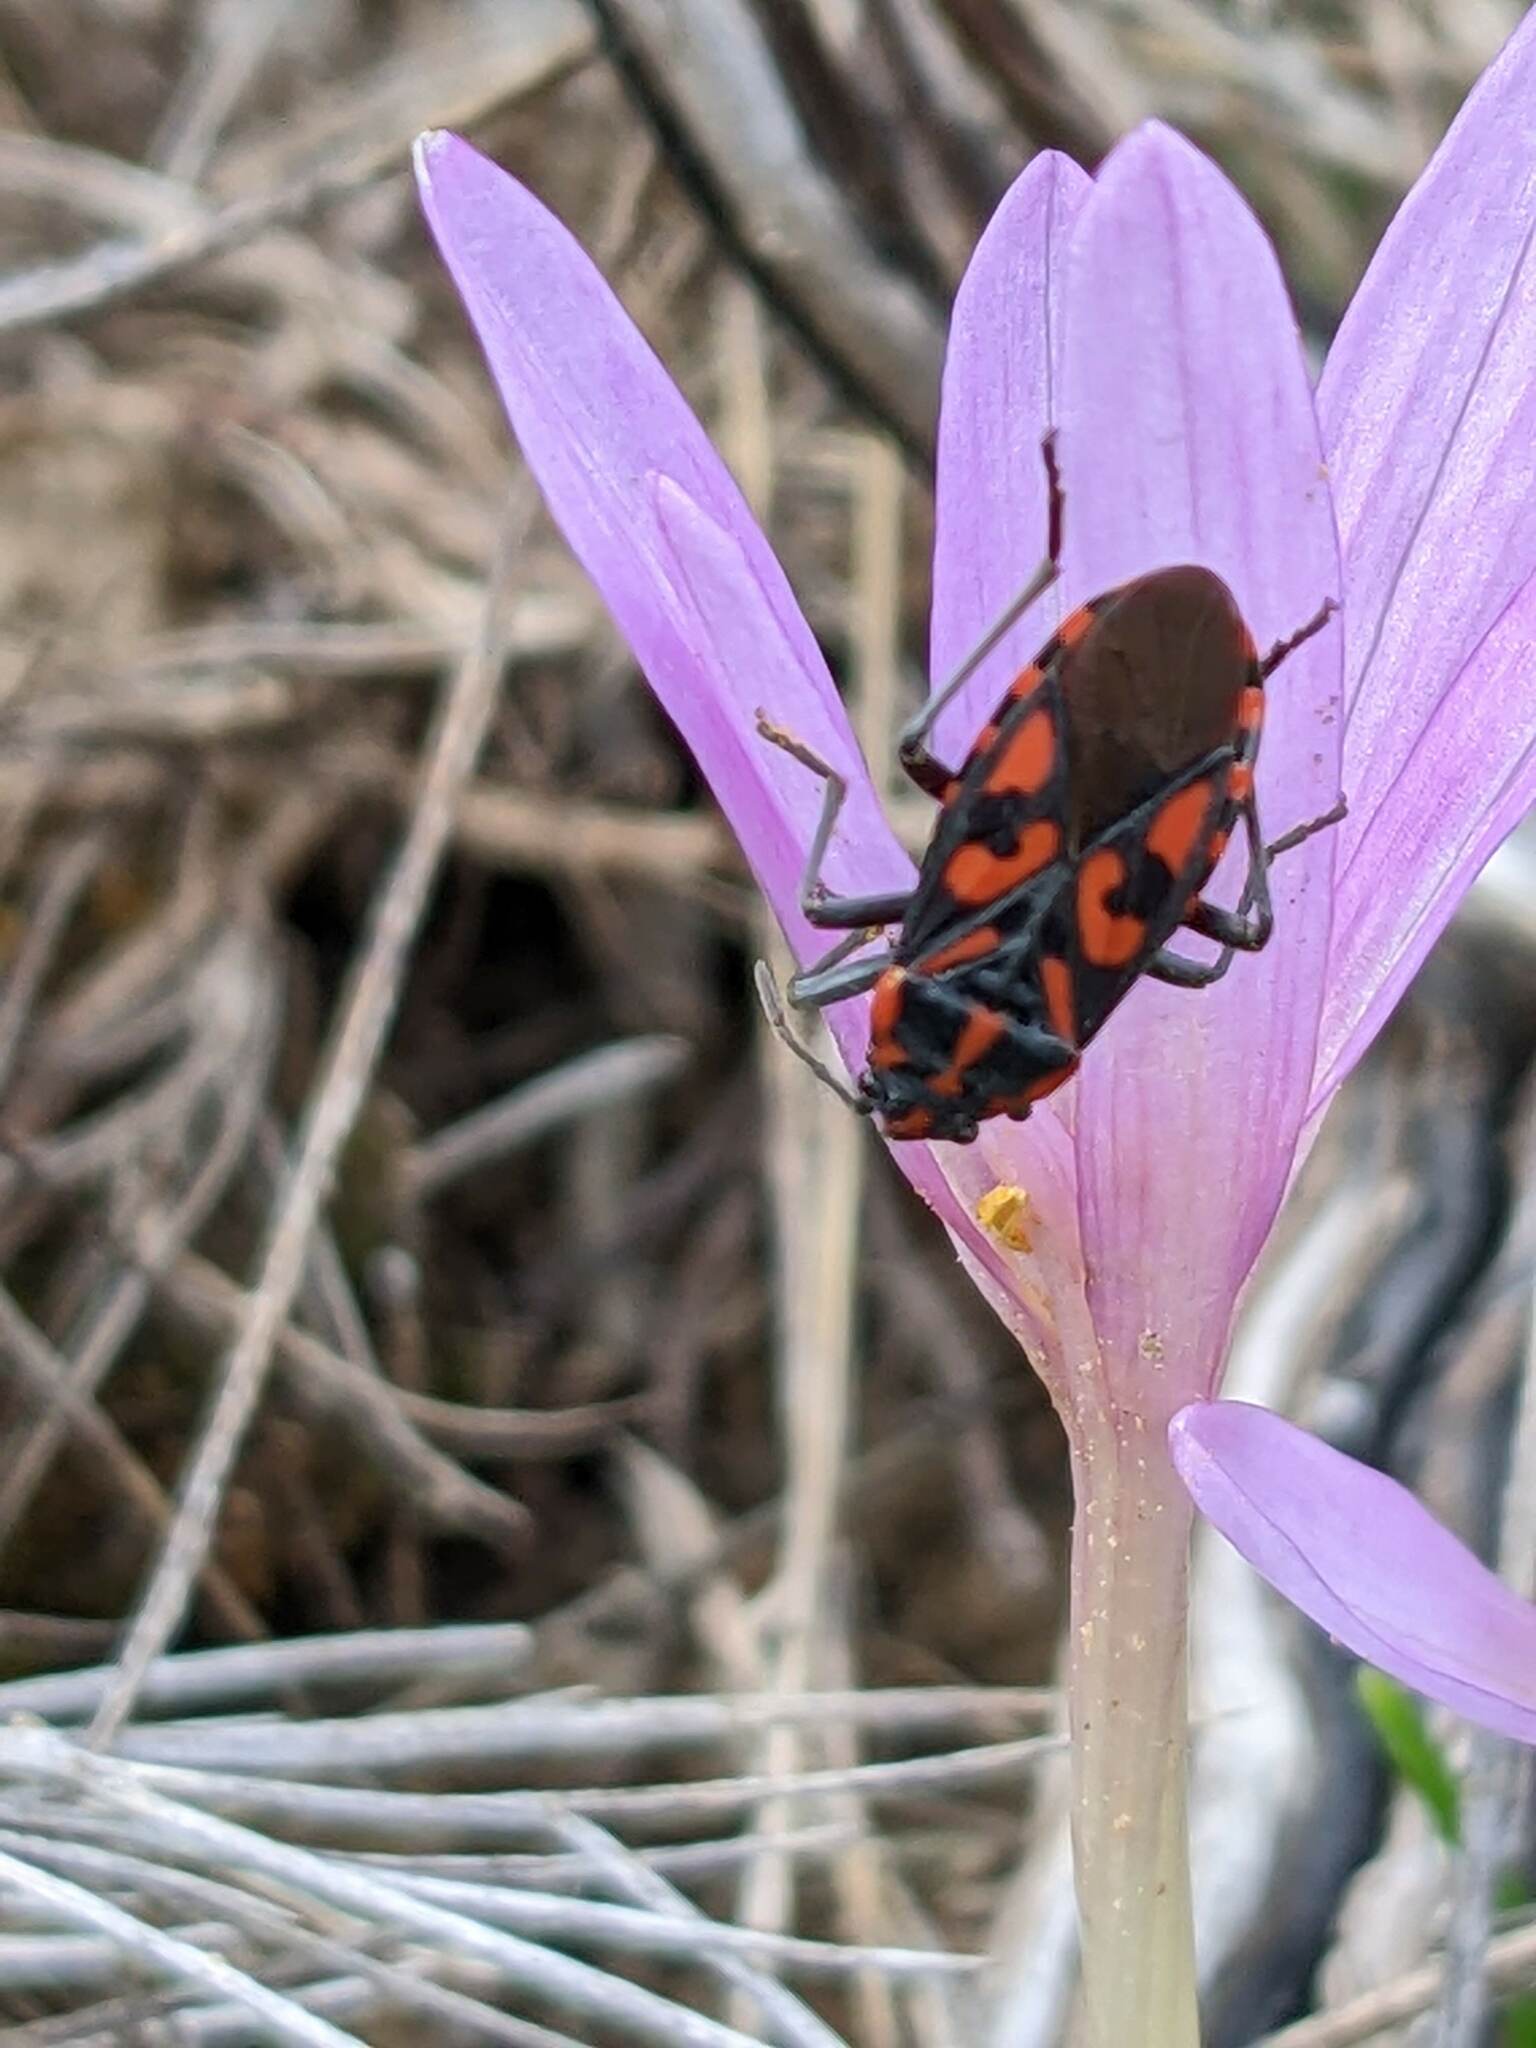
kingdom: Animalia
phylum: Arthropoda
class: Insecta
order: Hemiptera
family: Lygaeidae
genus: Spilostethus
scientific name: Spilostethus saxatilis
